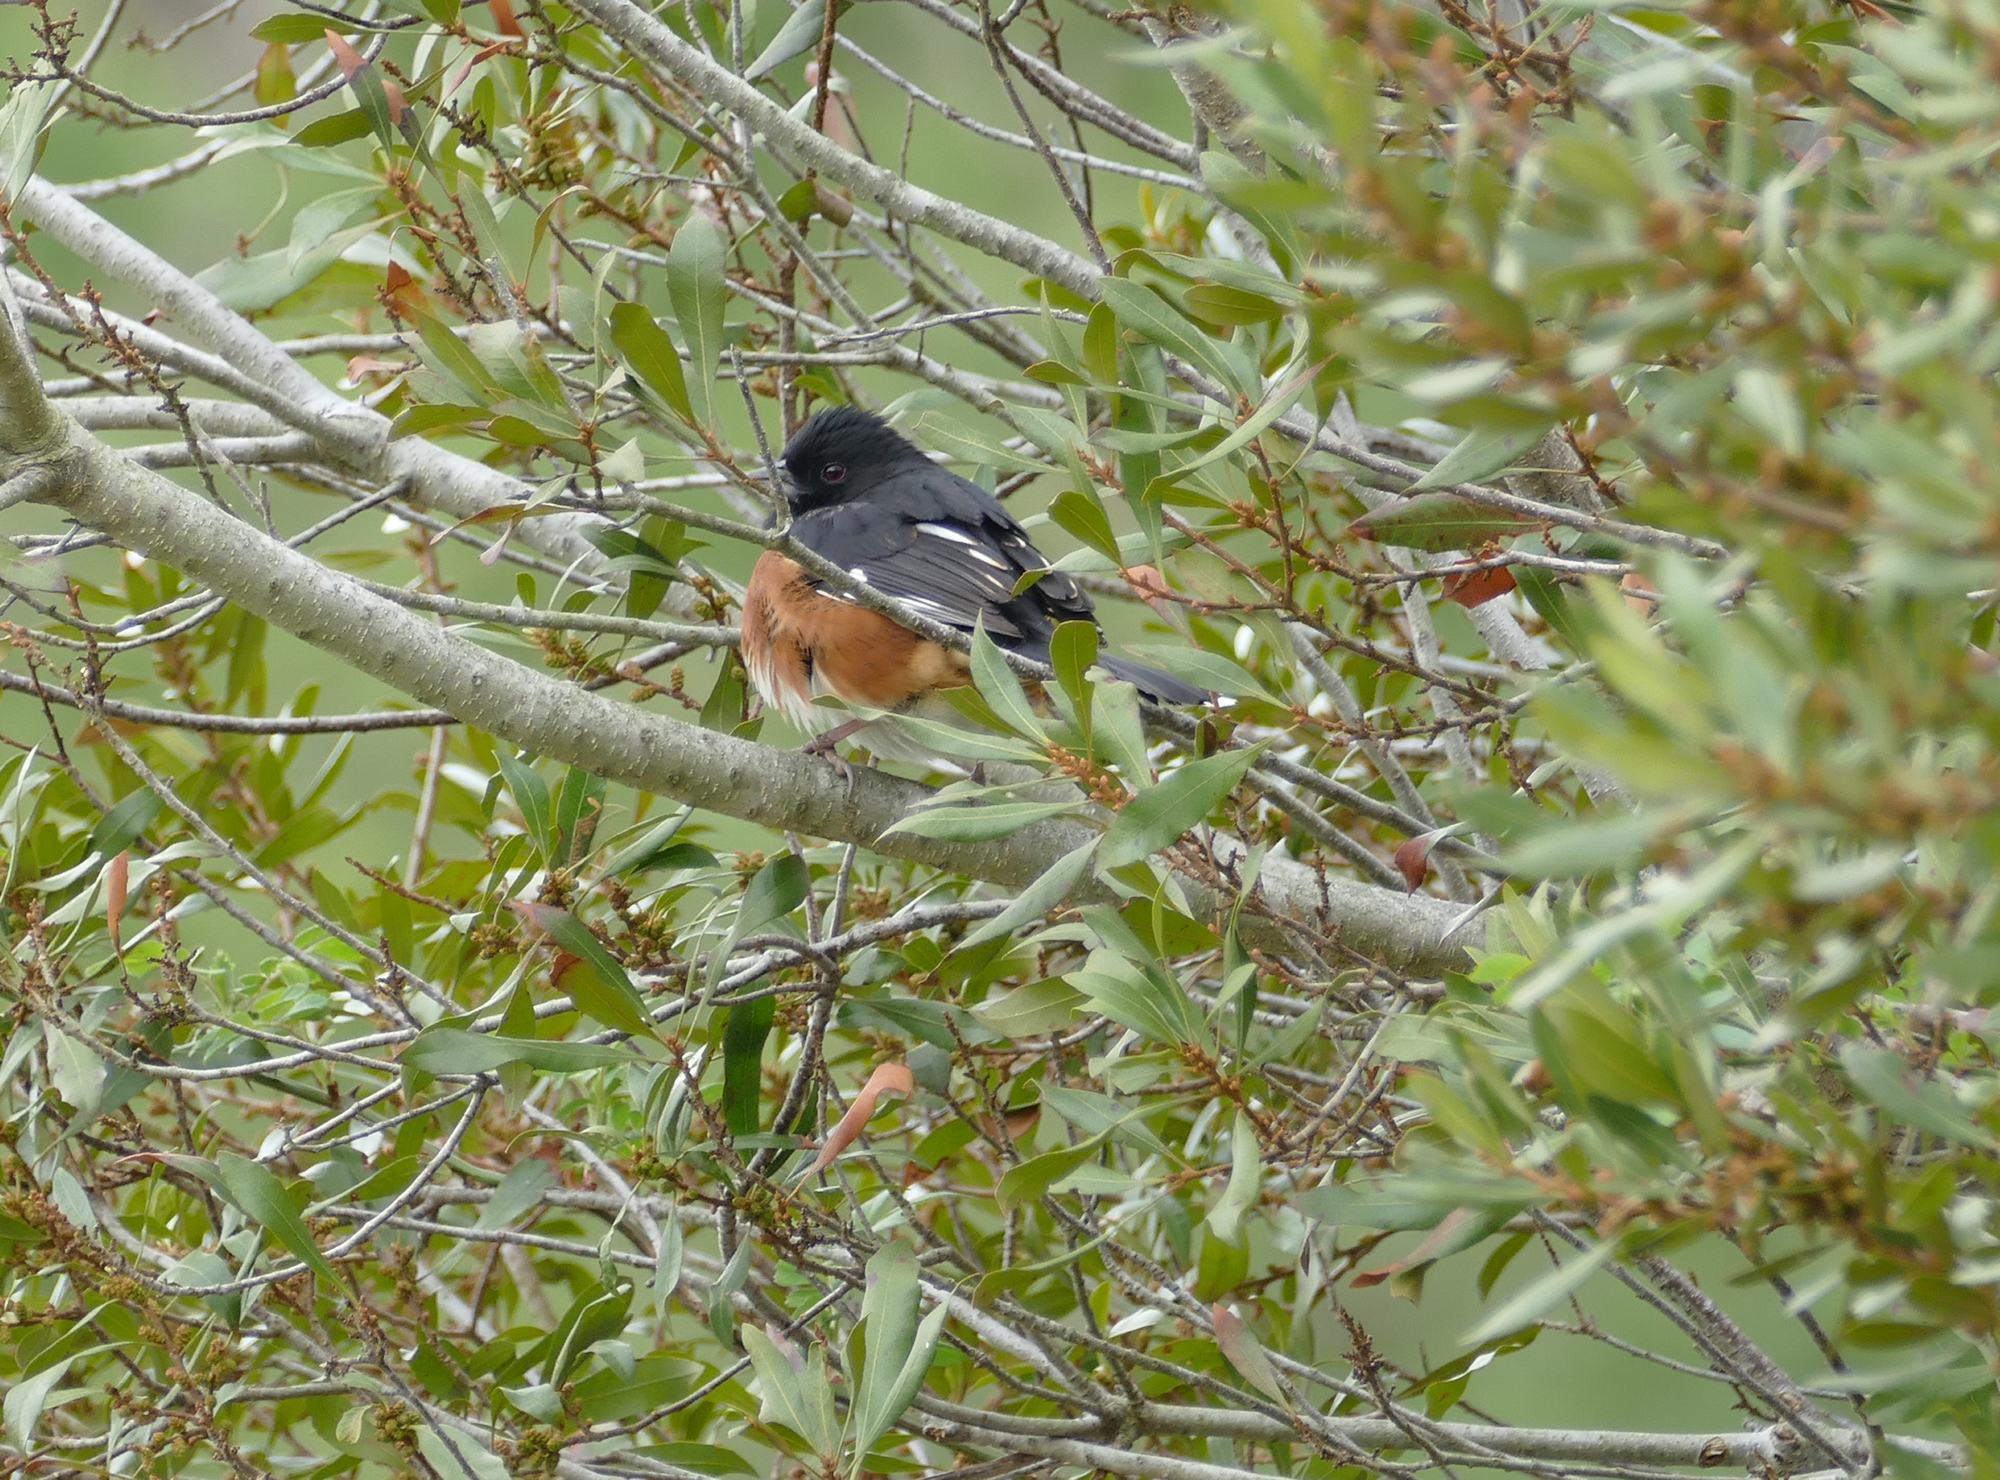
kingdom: Animalia
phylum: Chordata
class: Aves
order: Passeriformes
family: Passerellidae
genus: Pipilo
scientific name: Pipilo erythrophthalmus
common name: Eastern towhee
